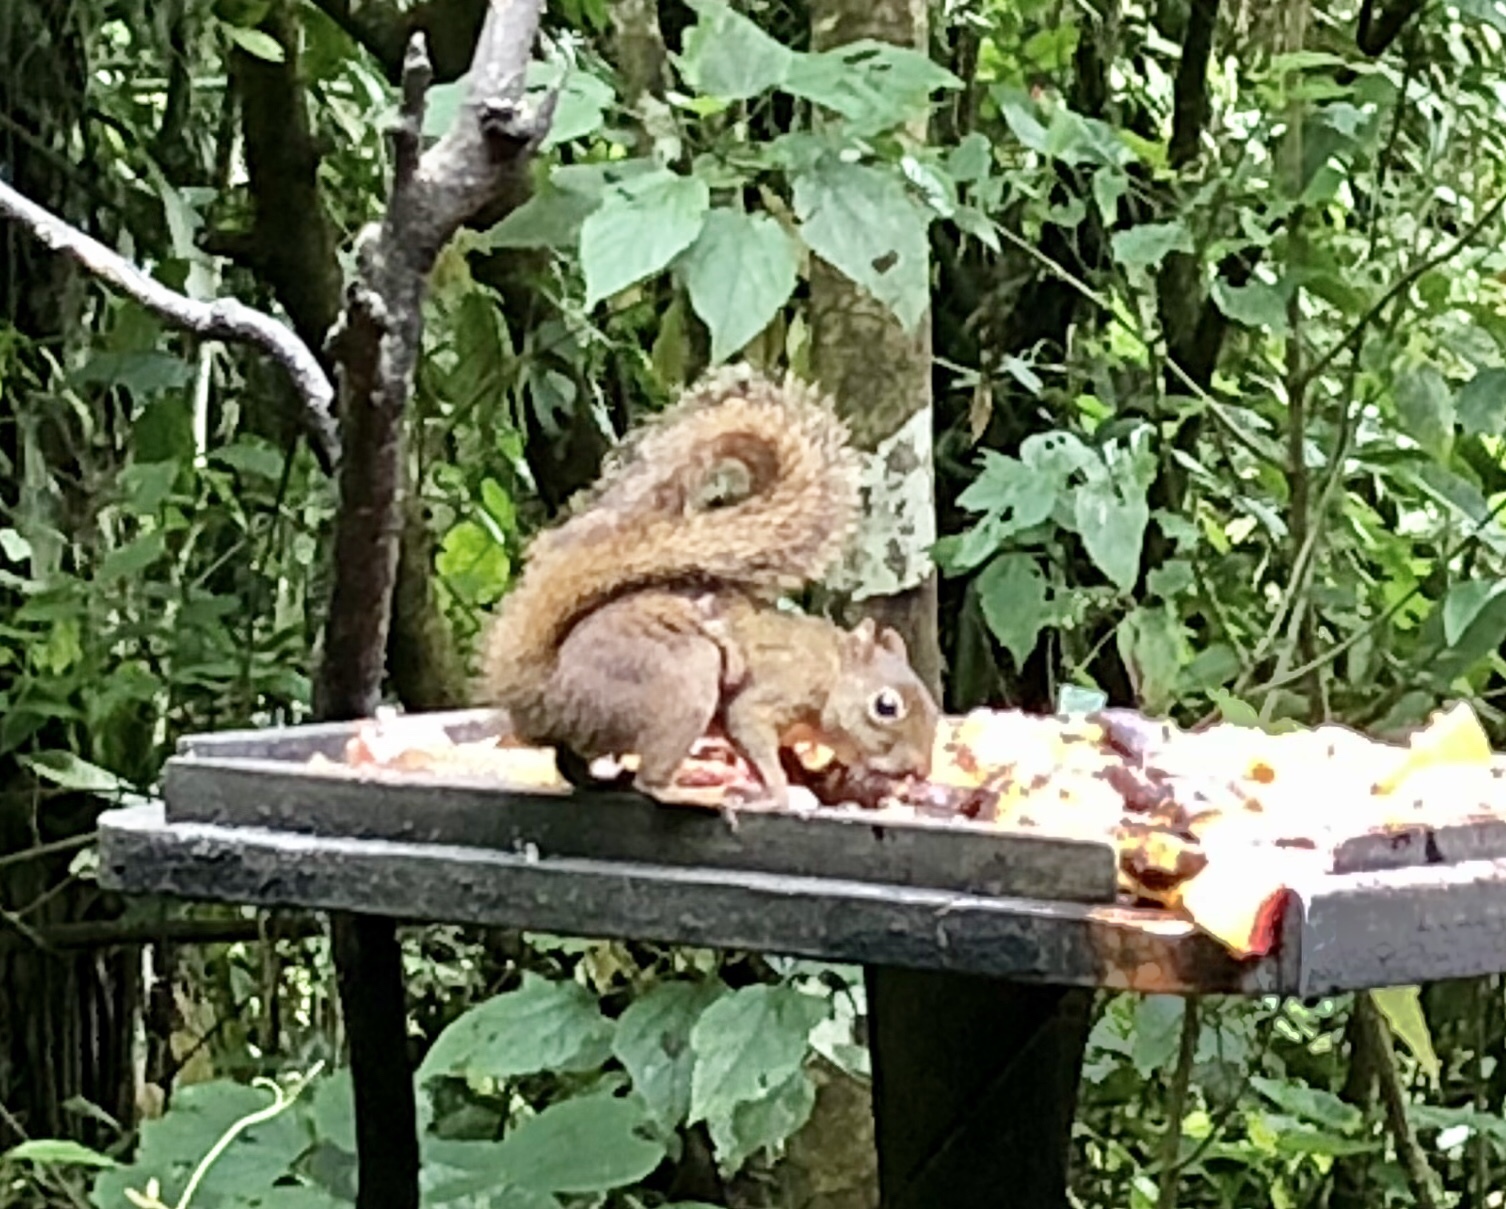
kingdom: Animalia
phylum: Chordata
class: Mammalia
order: Rodentia
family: Sciuridae
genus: Sciurus
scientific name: Sciurus aestuans
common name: Guianan squirrel
